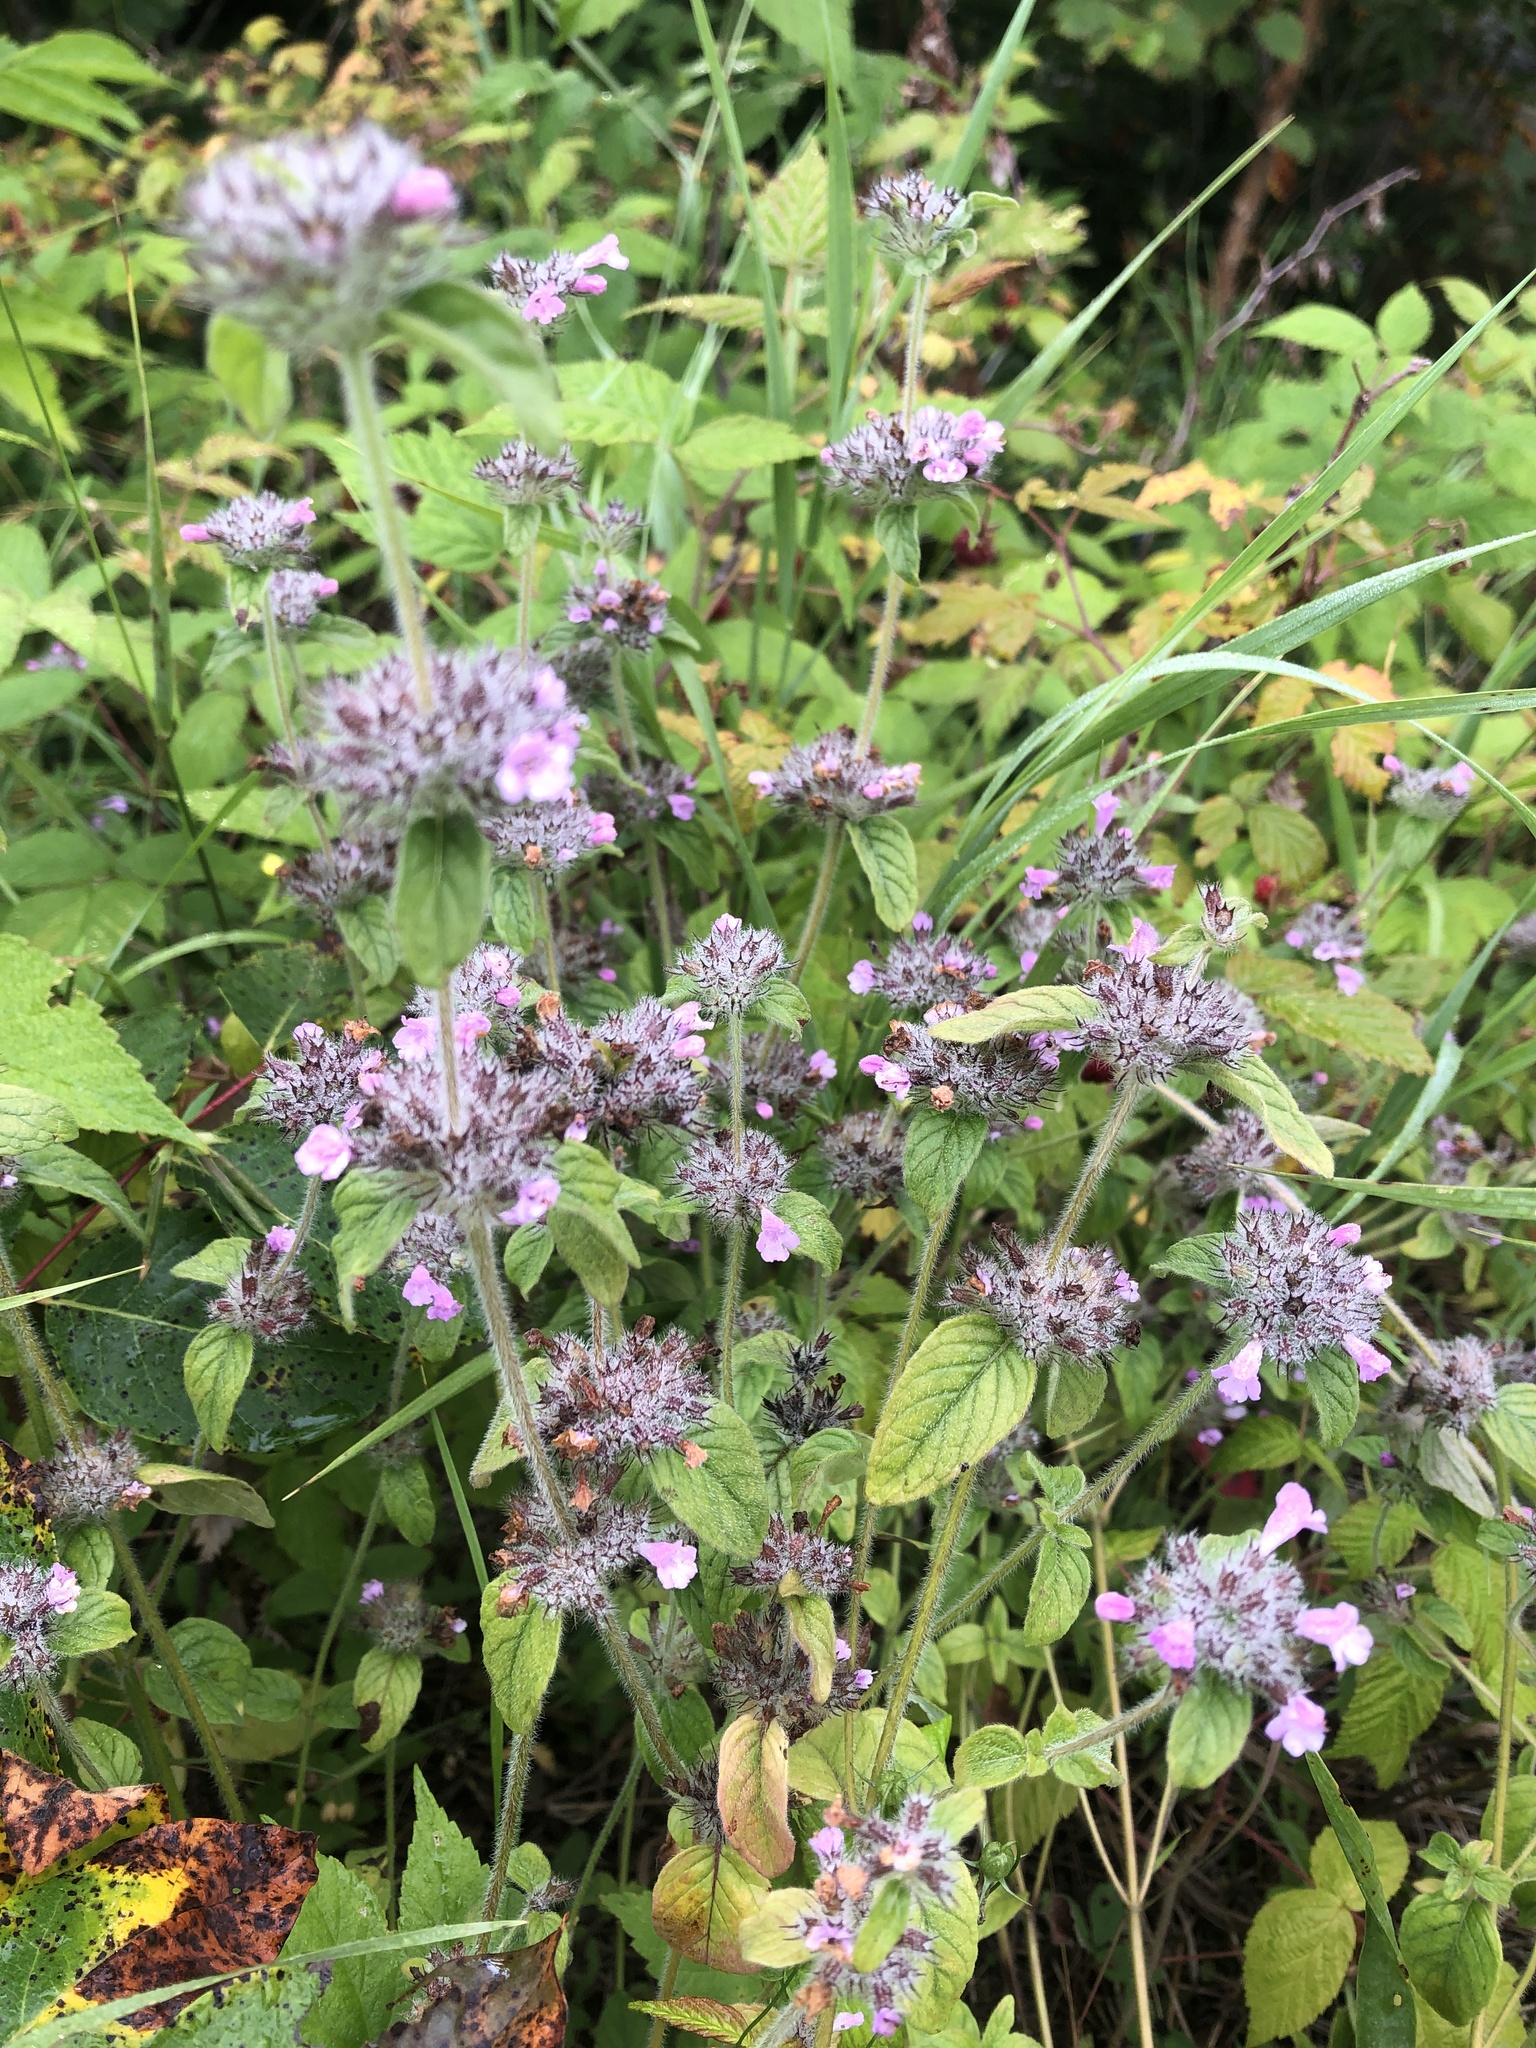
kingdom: Plantae
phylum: Tracheophyta
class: Magnoliopsida
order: Lamiales
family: Lamiaceae
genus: Clinopodium
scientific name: Clinopodium vulgare
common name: Wild basil
